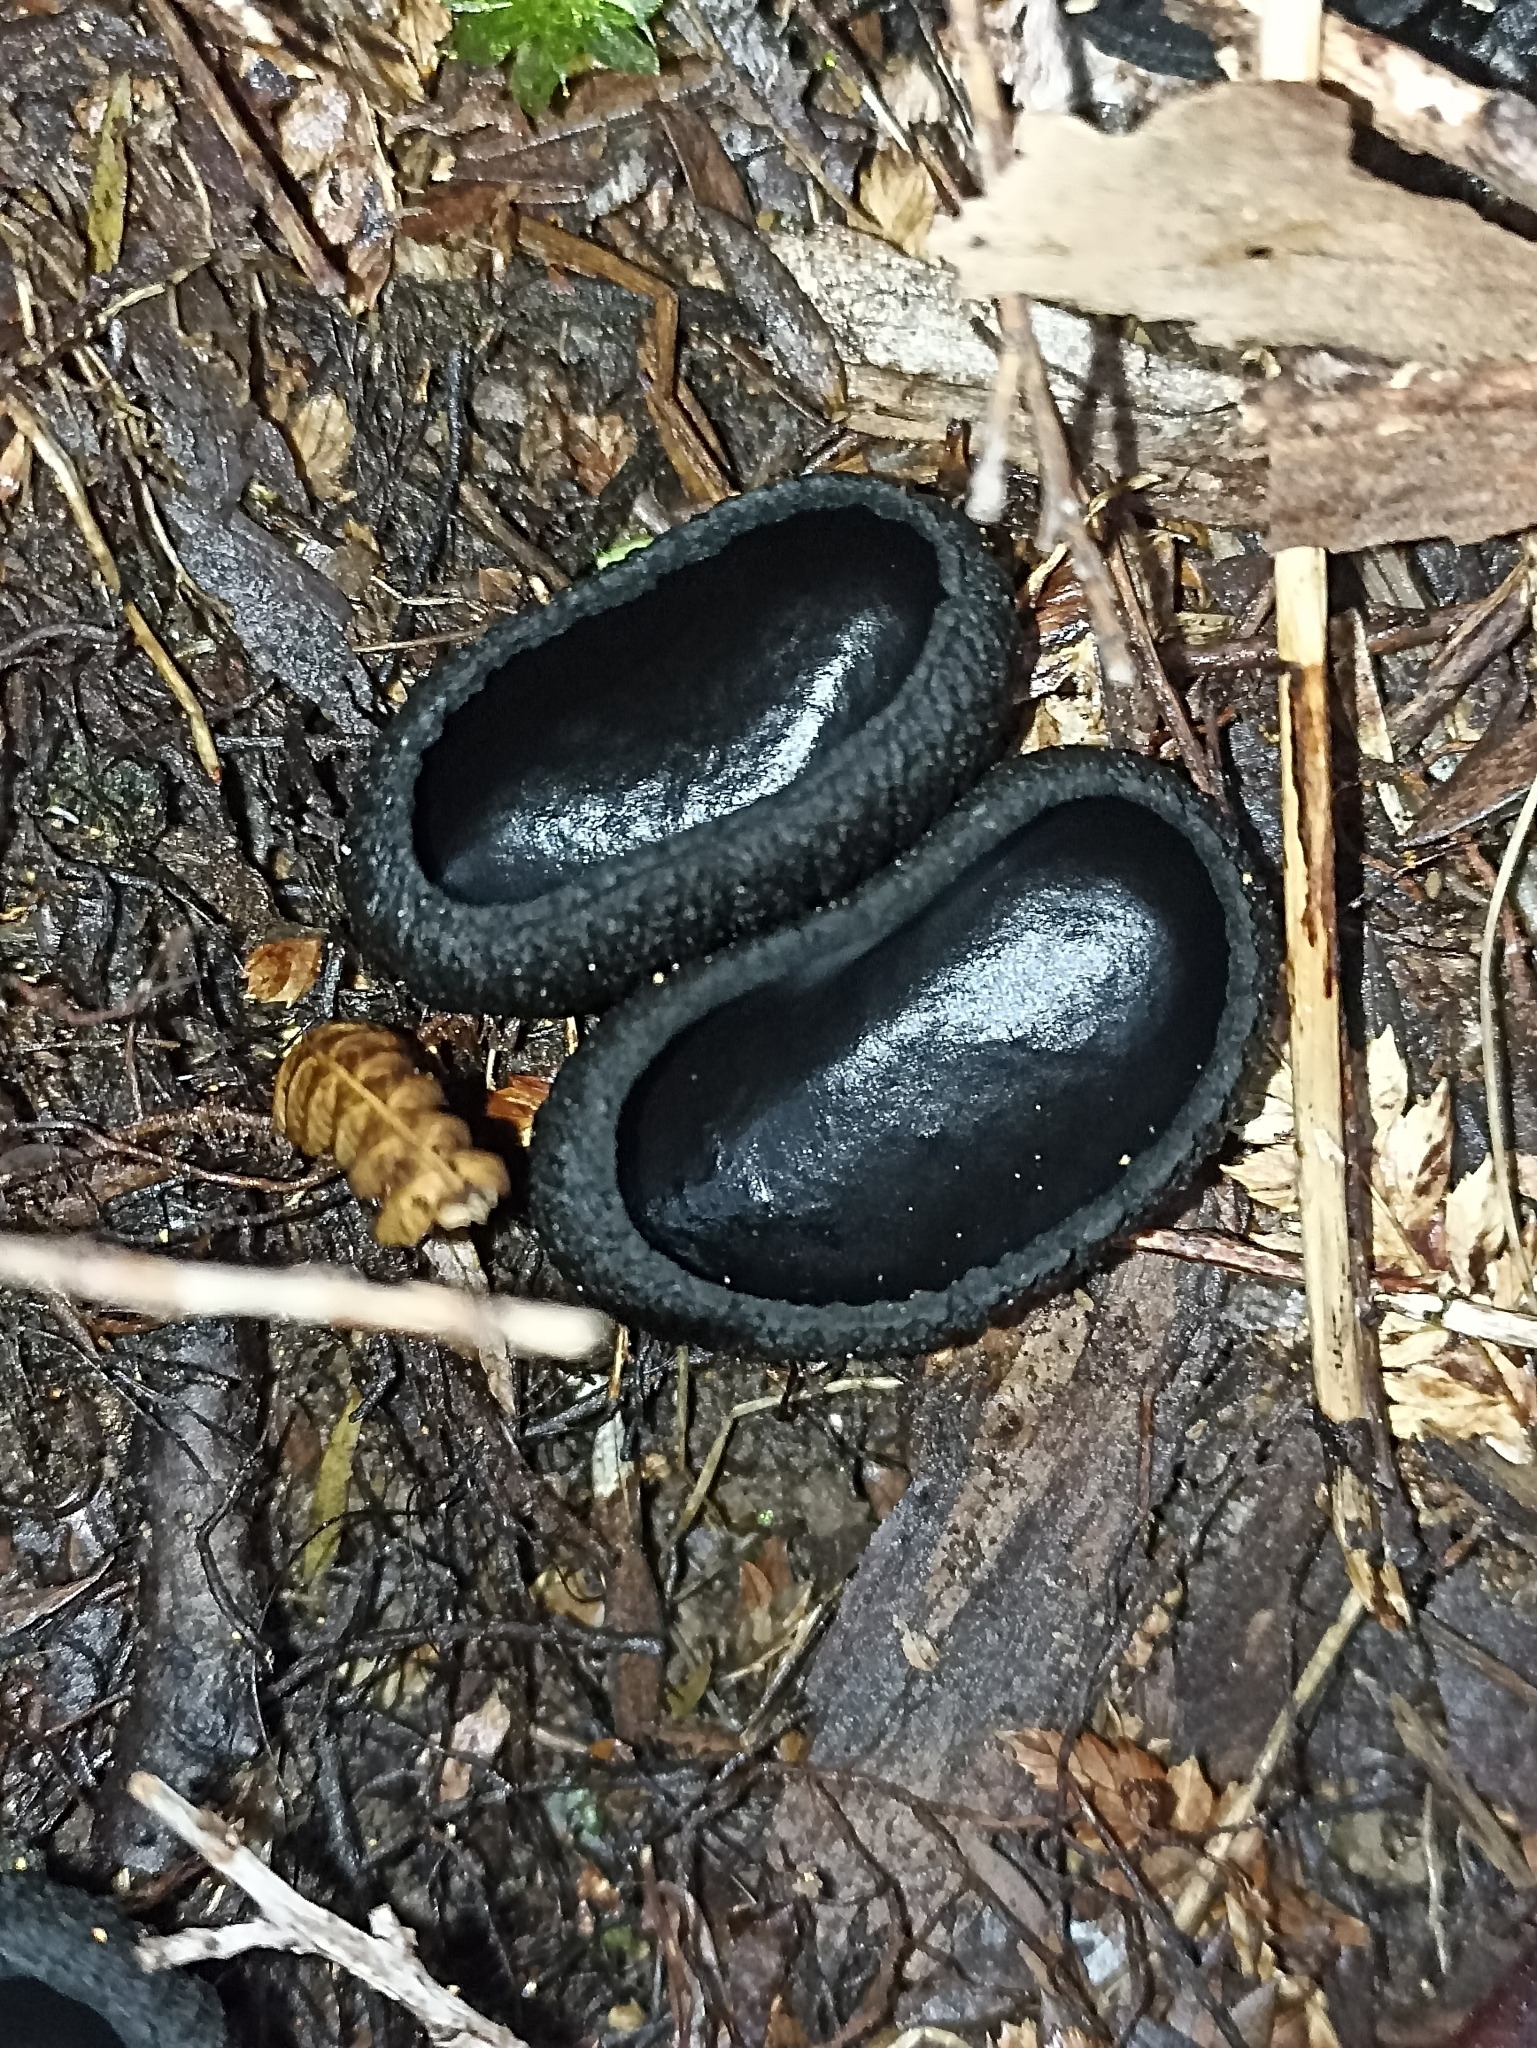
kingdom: Fungi
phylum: Ascomycota
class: Pezizomycetes
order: Pezizales
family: Sarcosomataceae
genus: Plectania
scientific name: Plectania rhytidia
